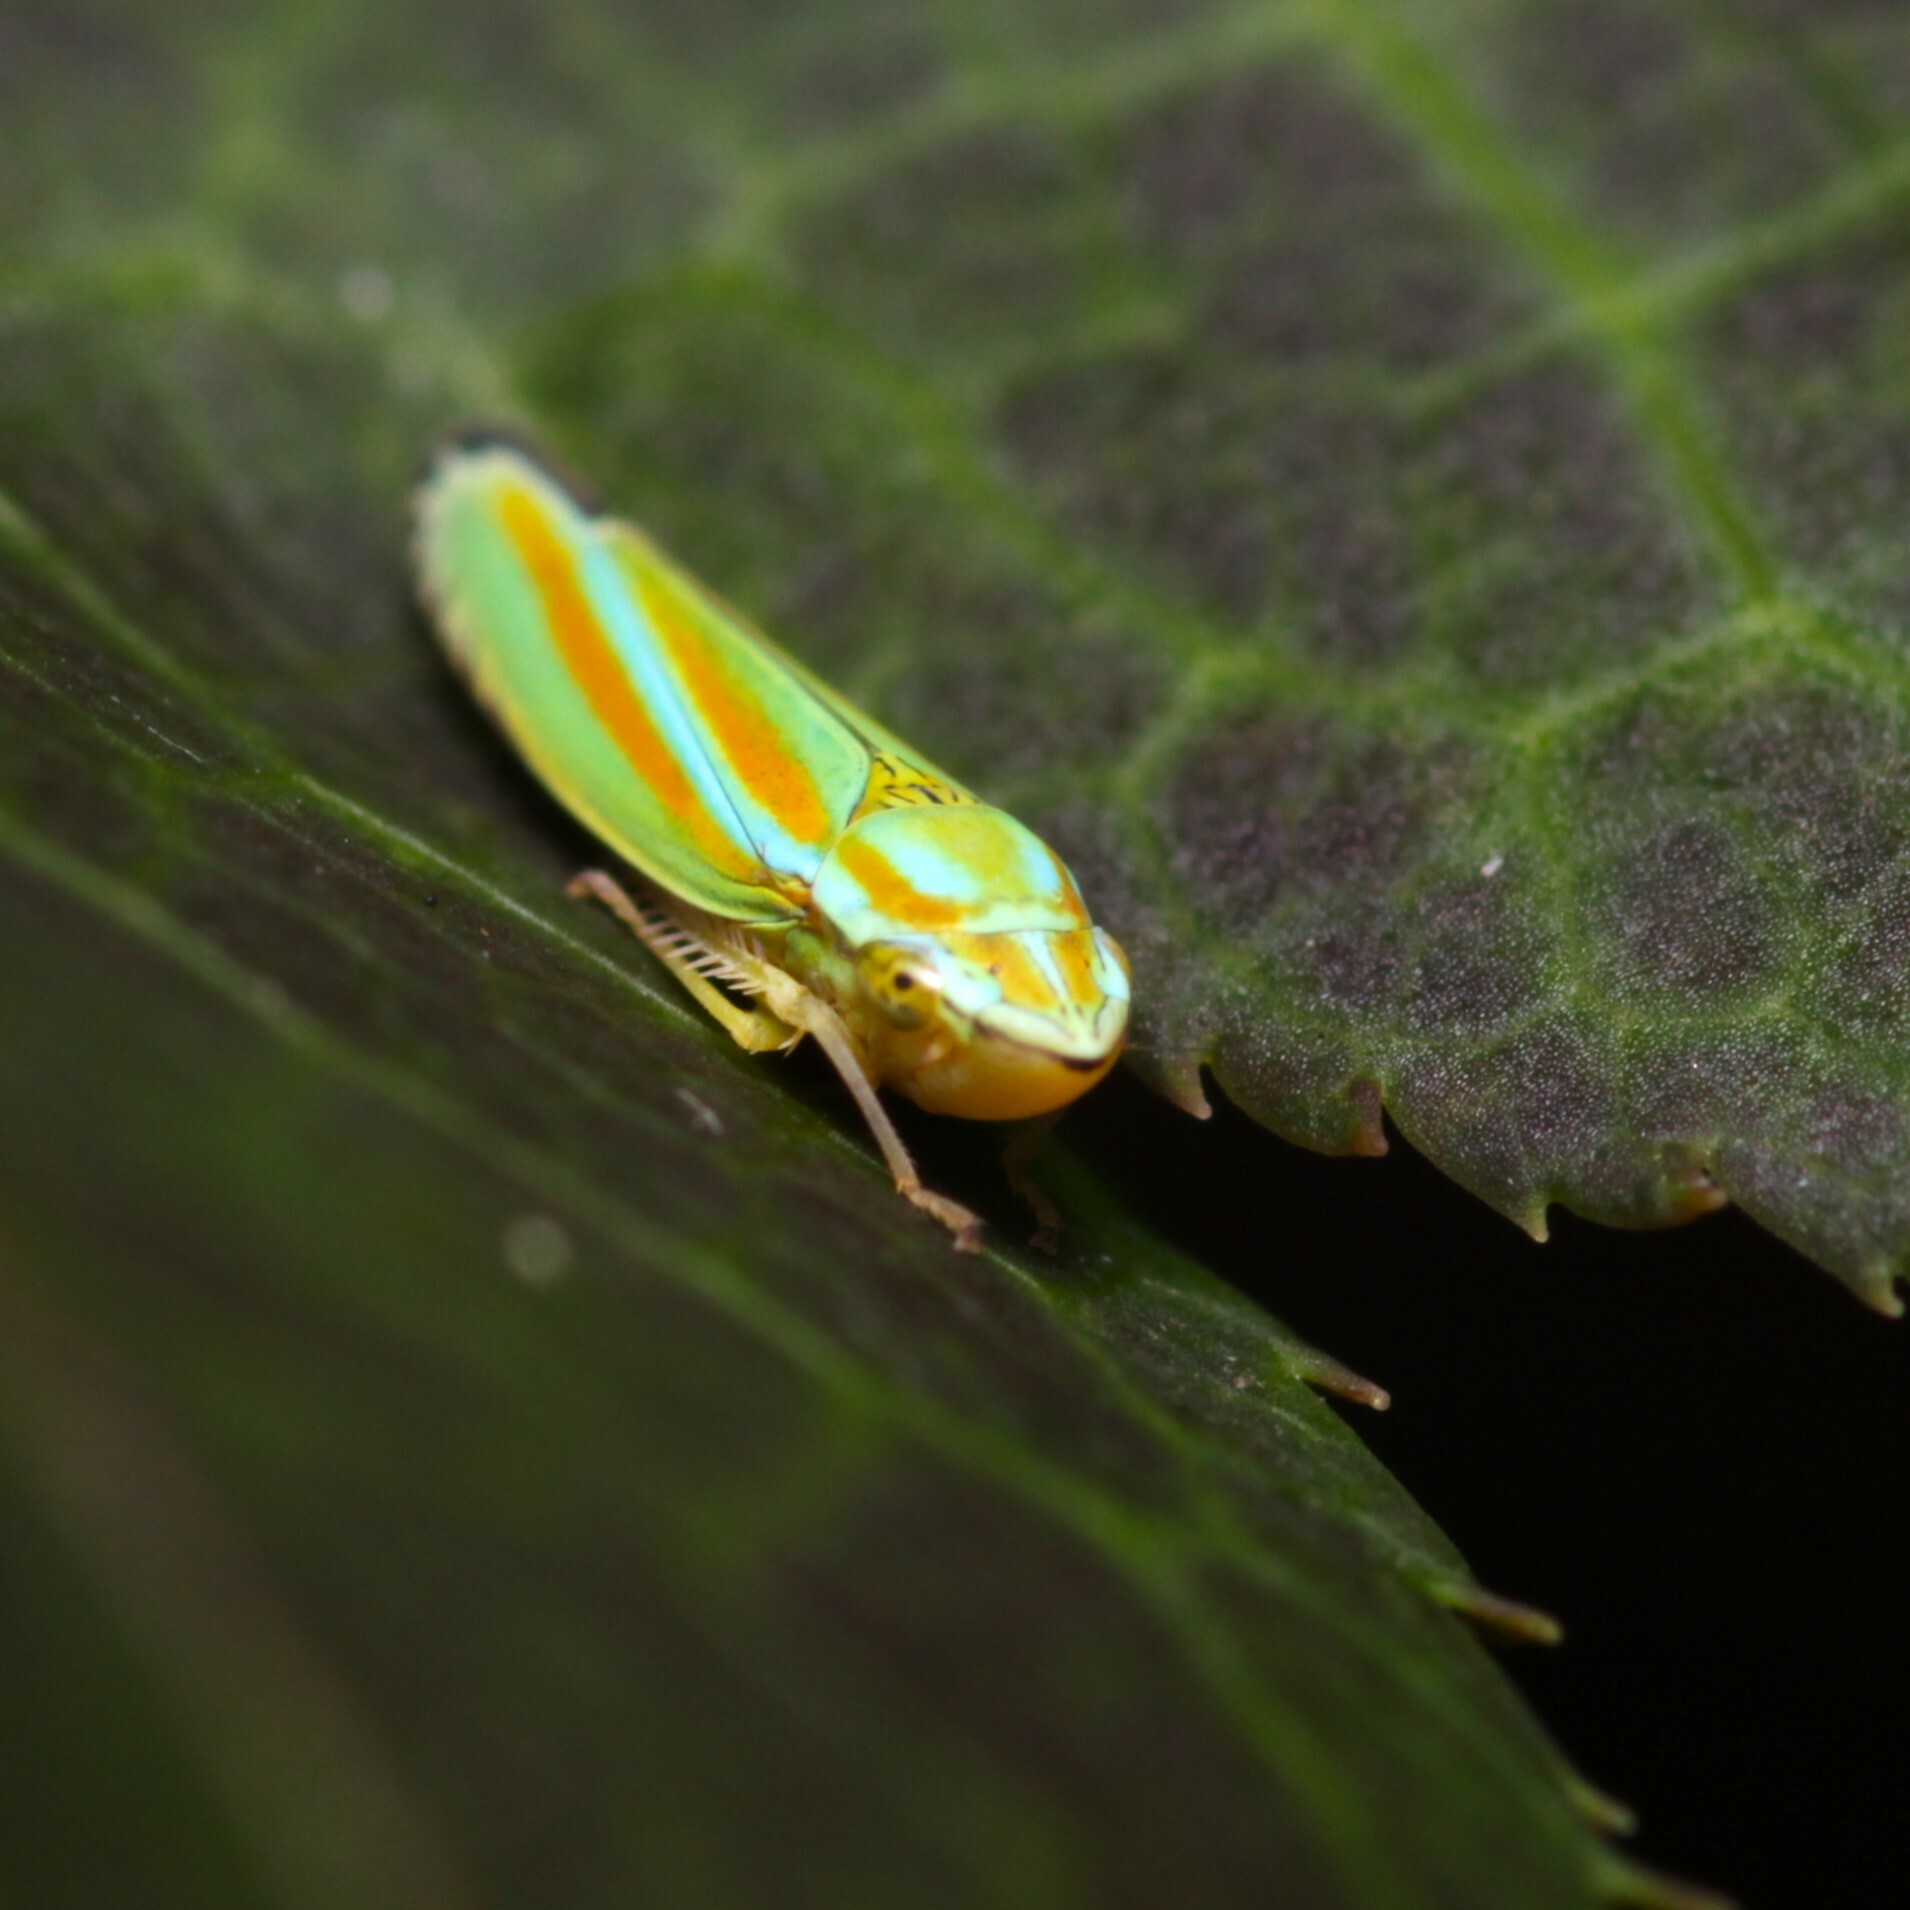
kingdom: Animalia
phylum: Arthropoda
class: Insecta
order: Hemiptera
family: Cicadellidae
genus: Graphocephala
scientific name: Graphocephala versuta
